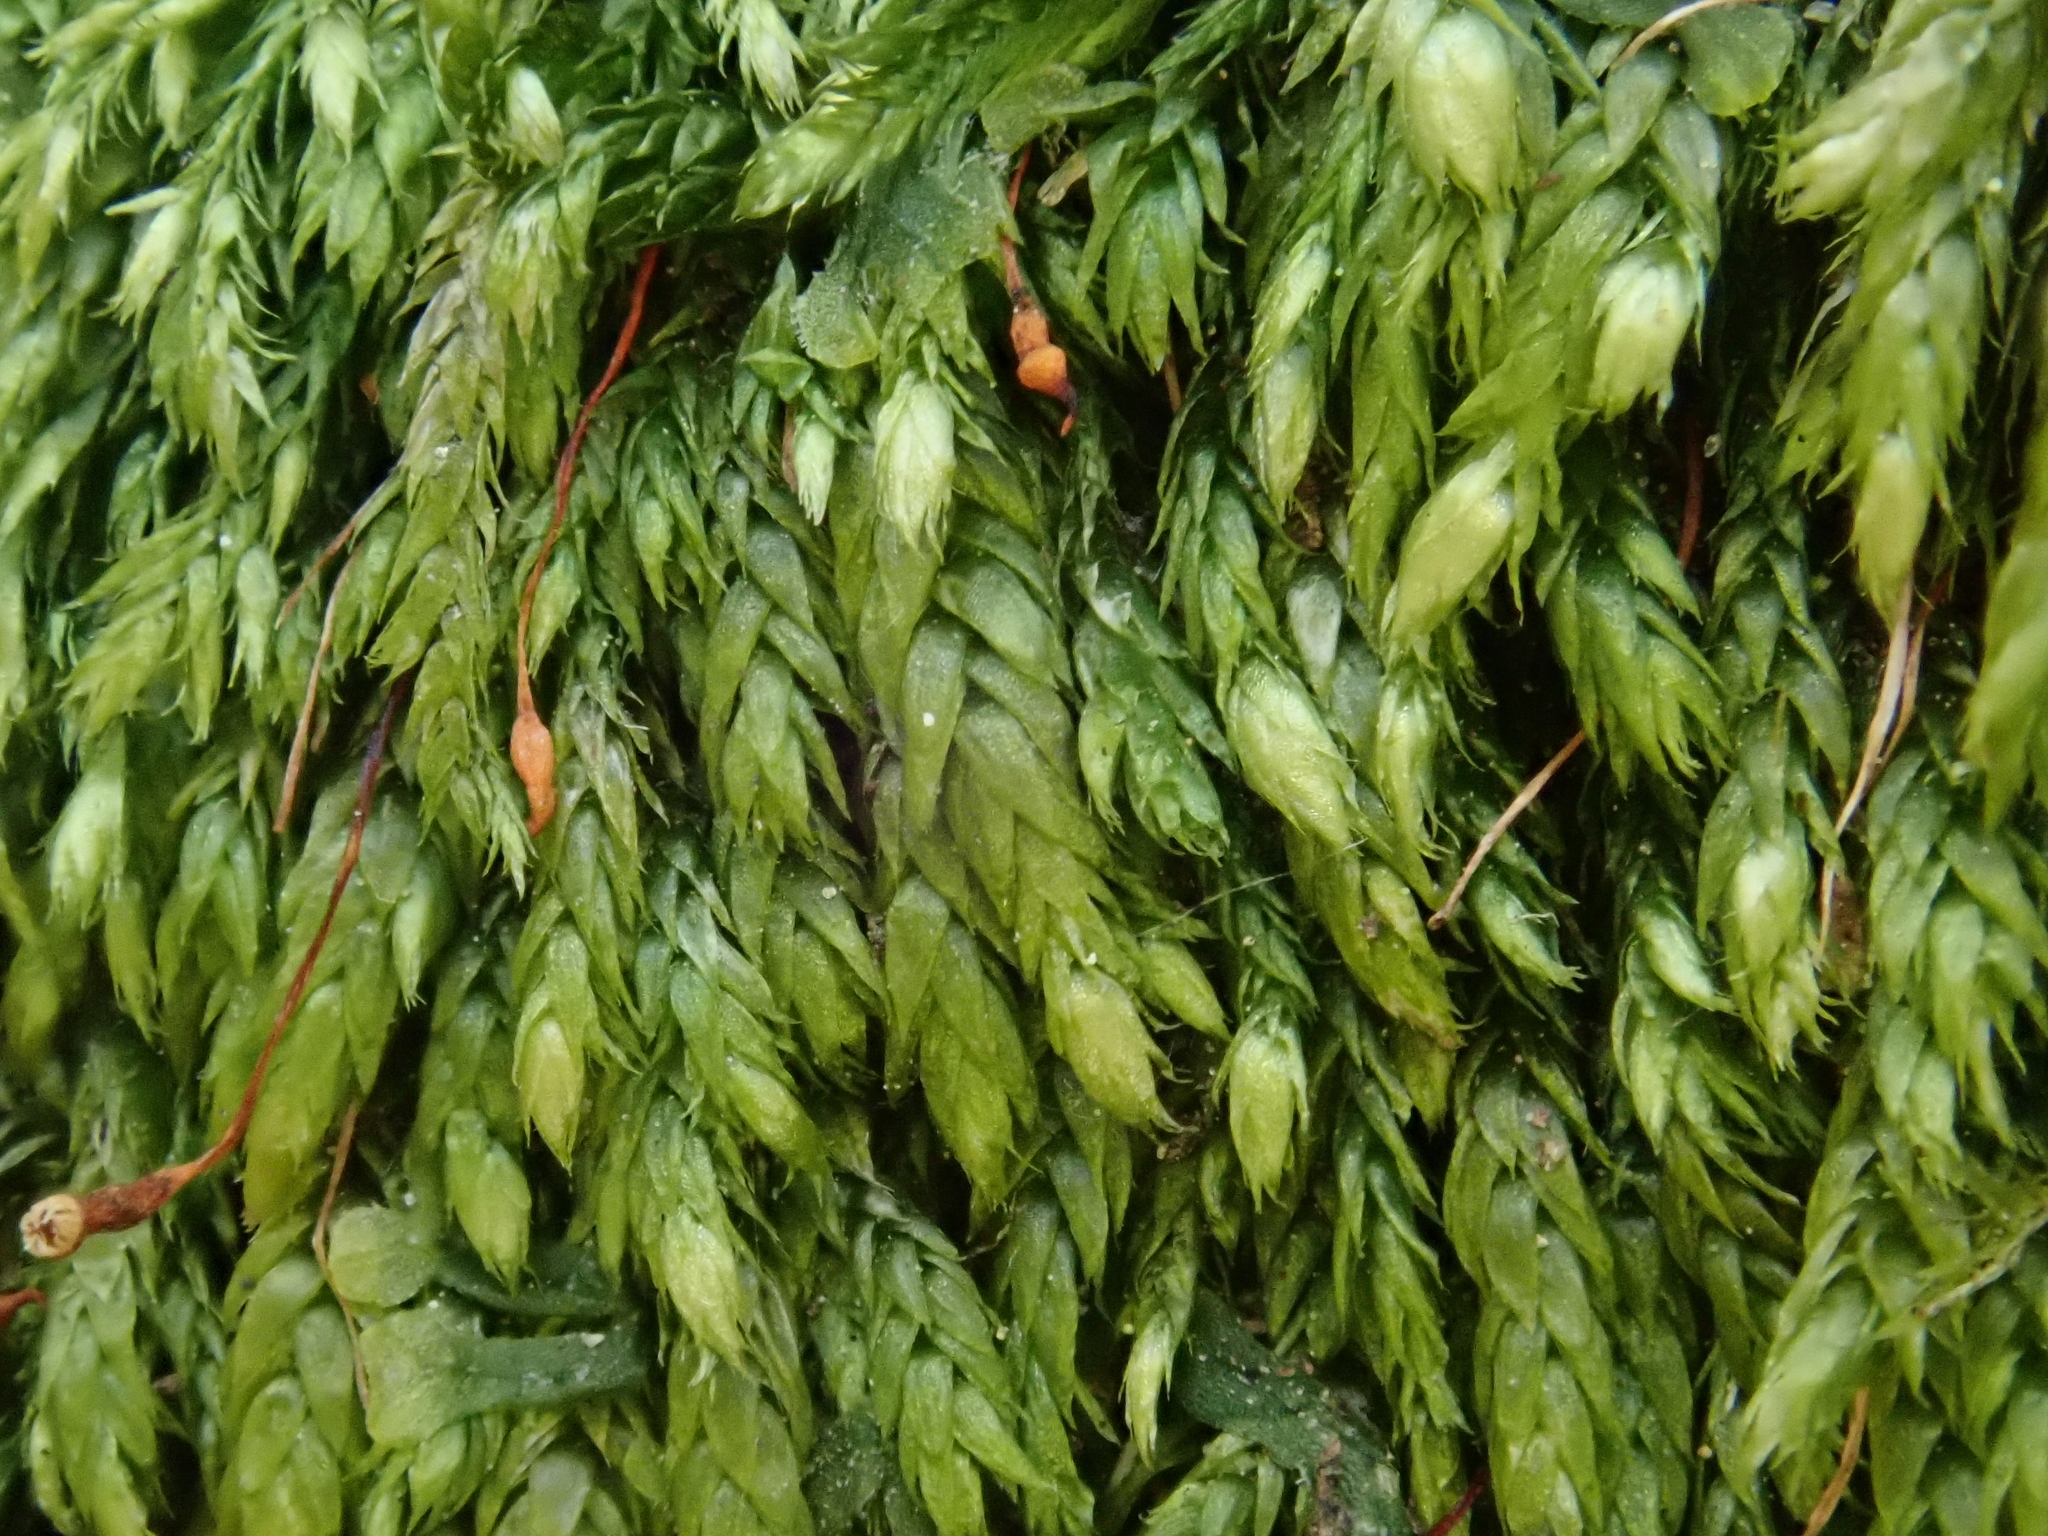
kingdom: Plantae
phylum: Bryophyta
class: Bryopsida
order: Hypnales
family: Taxiphyllaceae
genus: Taxiphyllum
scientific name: Taxiphyllum wissgrillii
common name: Depressed feather-moss
